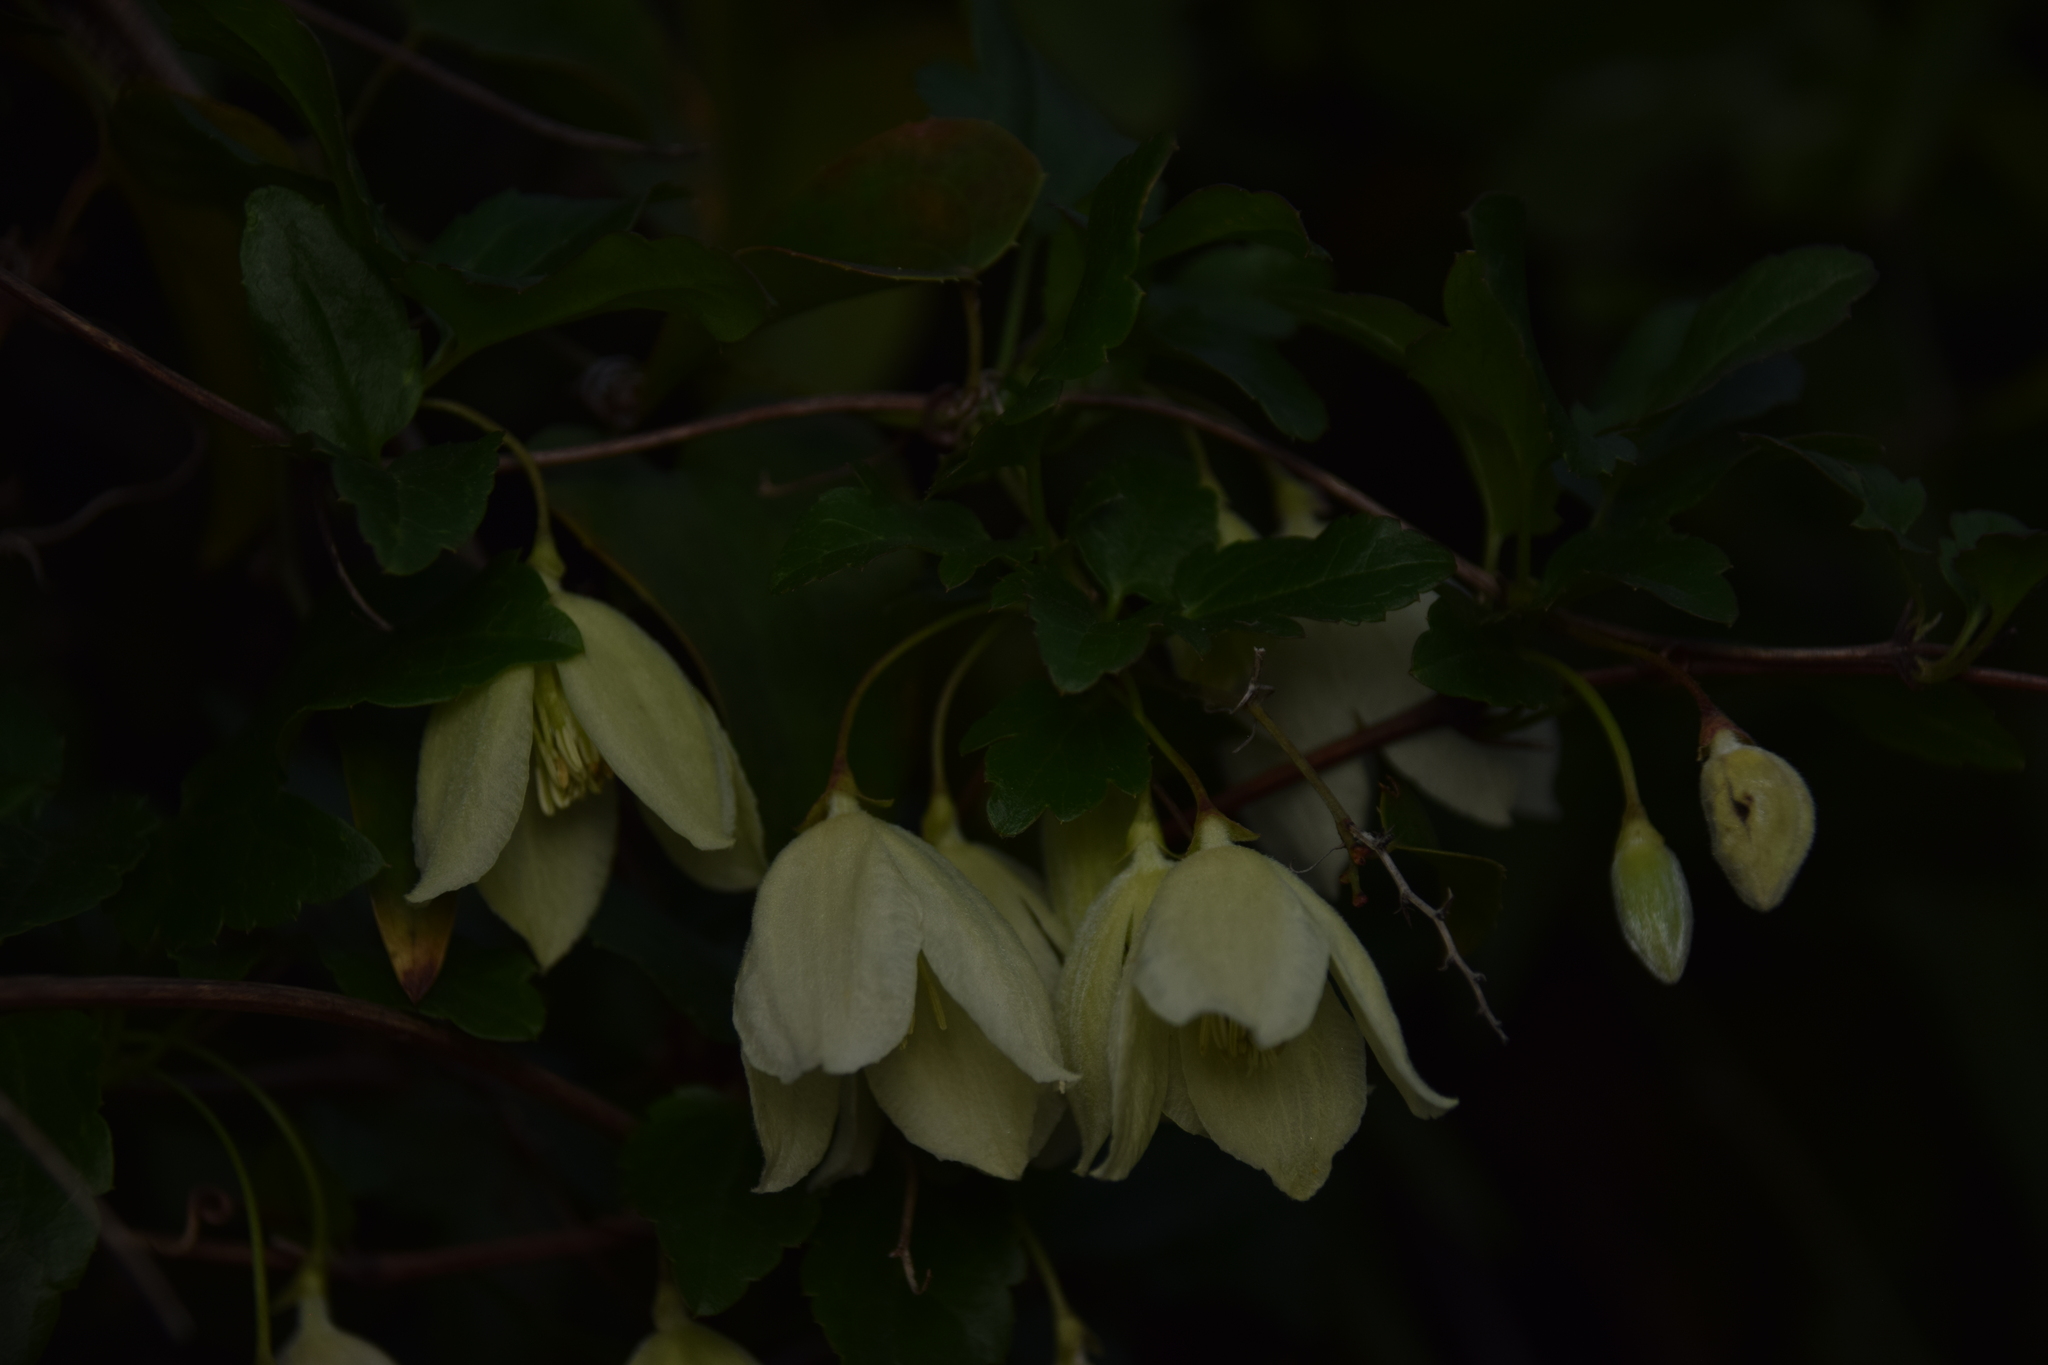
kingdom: Plantae
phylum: Tracheophyta
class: Magnoliopsida
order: Ranunculales
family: Ranunculaceae
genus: Clematis
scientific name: Clematis cirrhosa
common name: Early virgin's-bower
